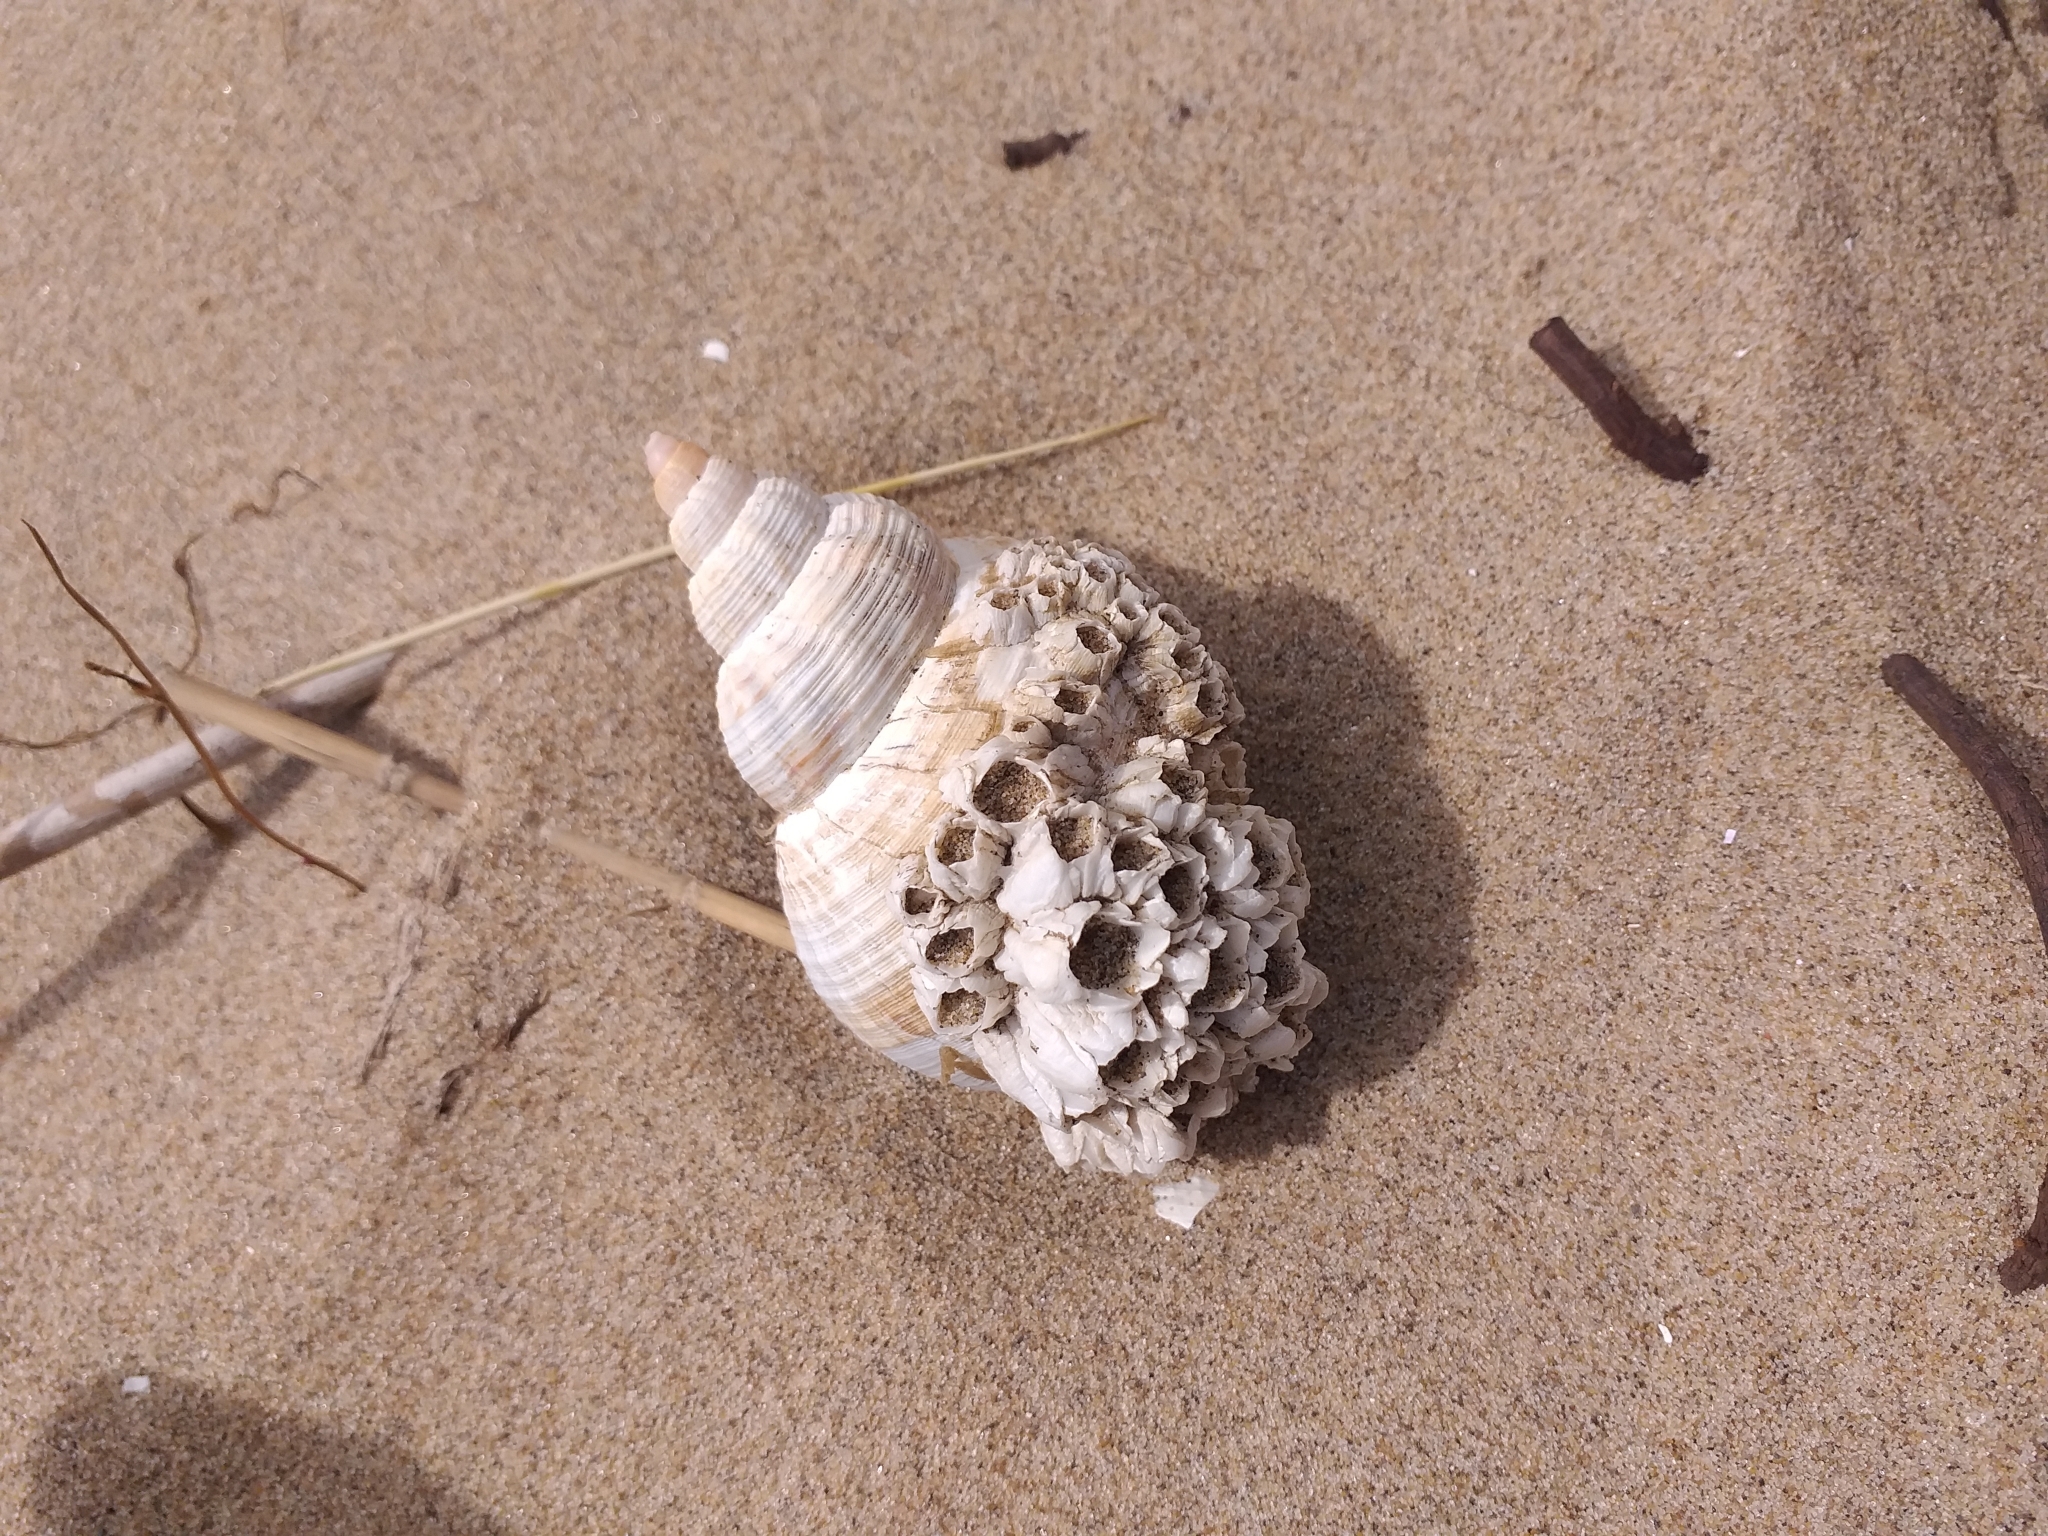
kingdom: Animalia
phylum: Mollusca
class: Gastropoda
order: Neogastropoda
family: Buccinidae
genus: Buccinum
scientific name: Buccinum undatum
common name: Common whelk
